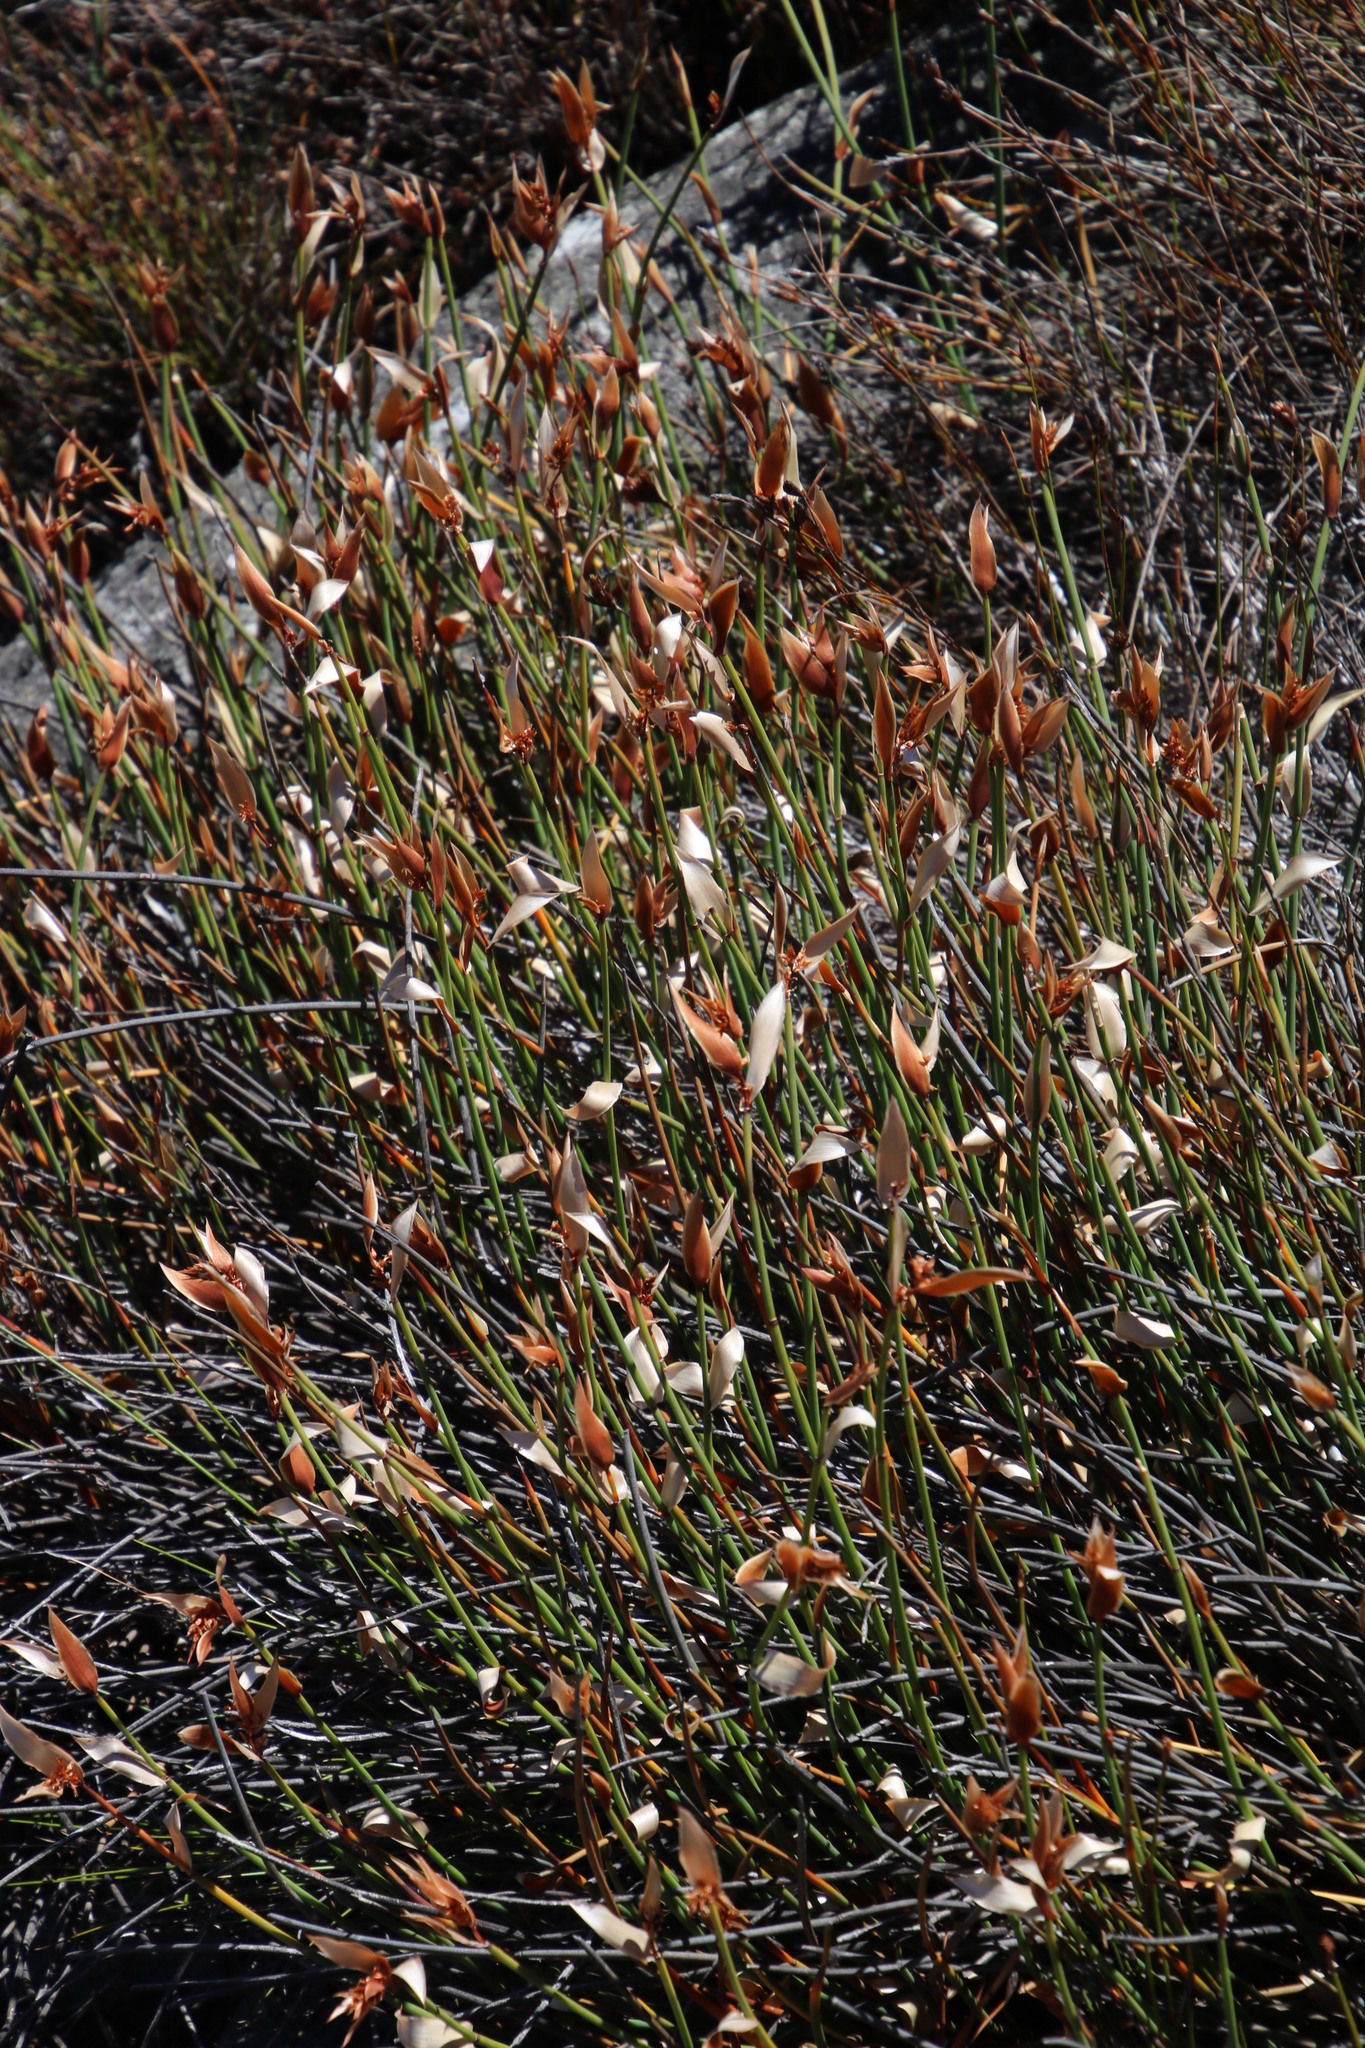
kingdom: Plantae
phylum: Tracheophyta
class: Liliopsida
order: Poales
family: Restionaceae
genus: Elegia
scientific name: Elegia esterhuyseniae
